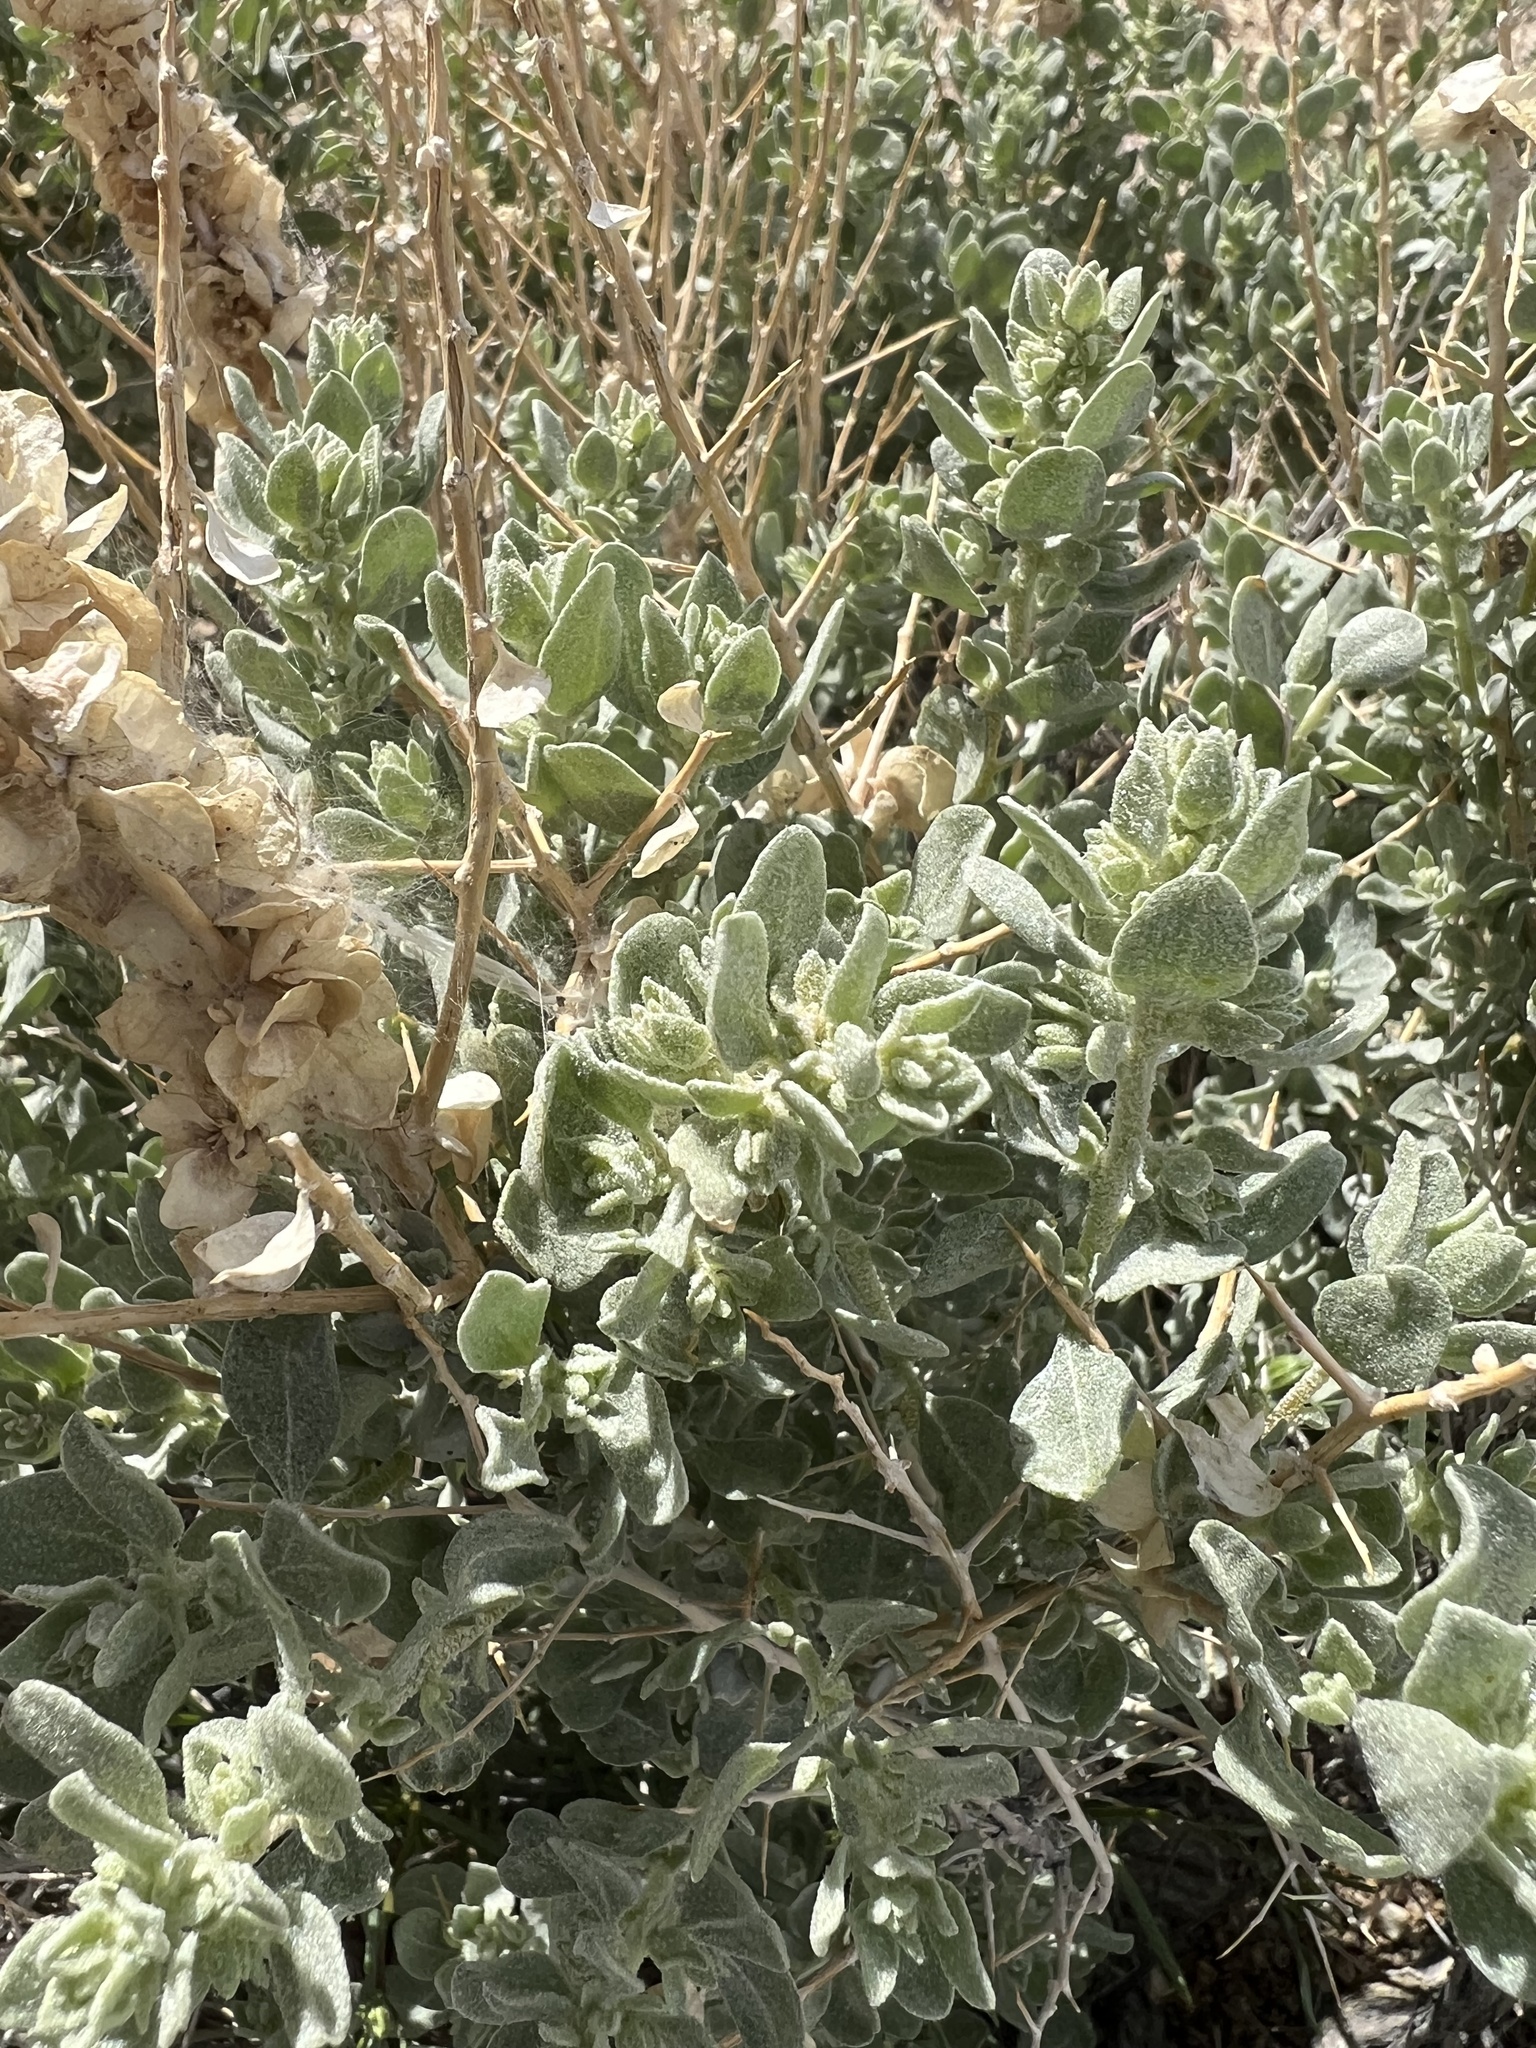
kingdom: Plantae
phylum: Tracheophyta
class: Magnoliopsida
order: Caryophyllales
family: Amaranthaceae
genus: Atriplex
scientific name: Atriplex confertifolia
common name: Shadscale
